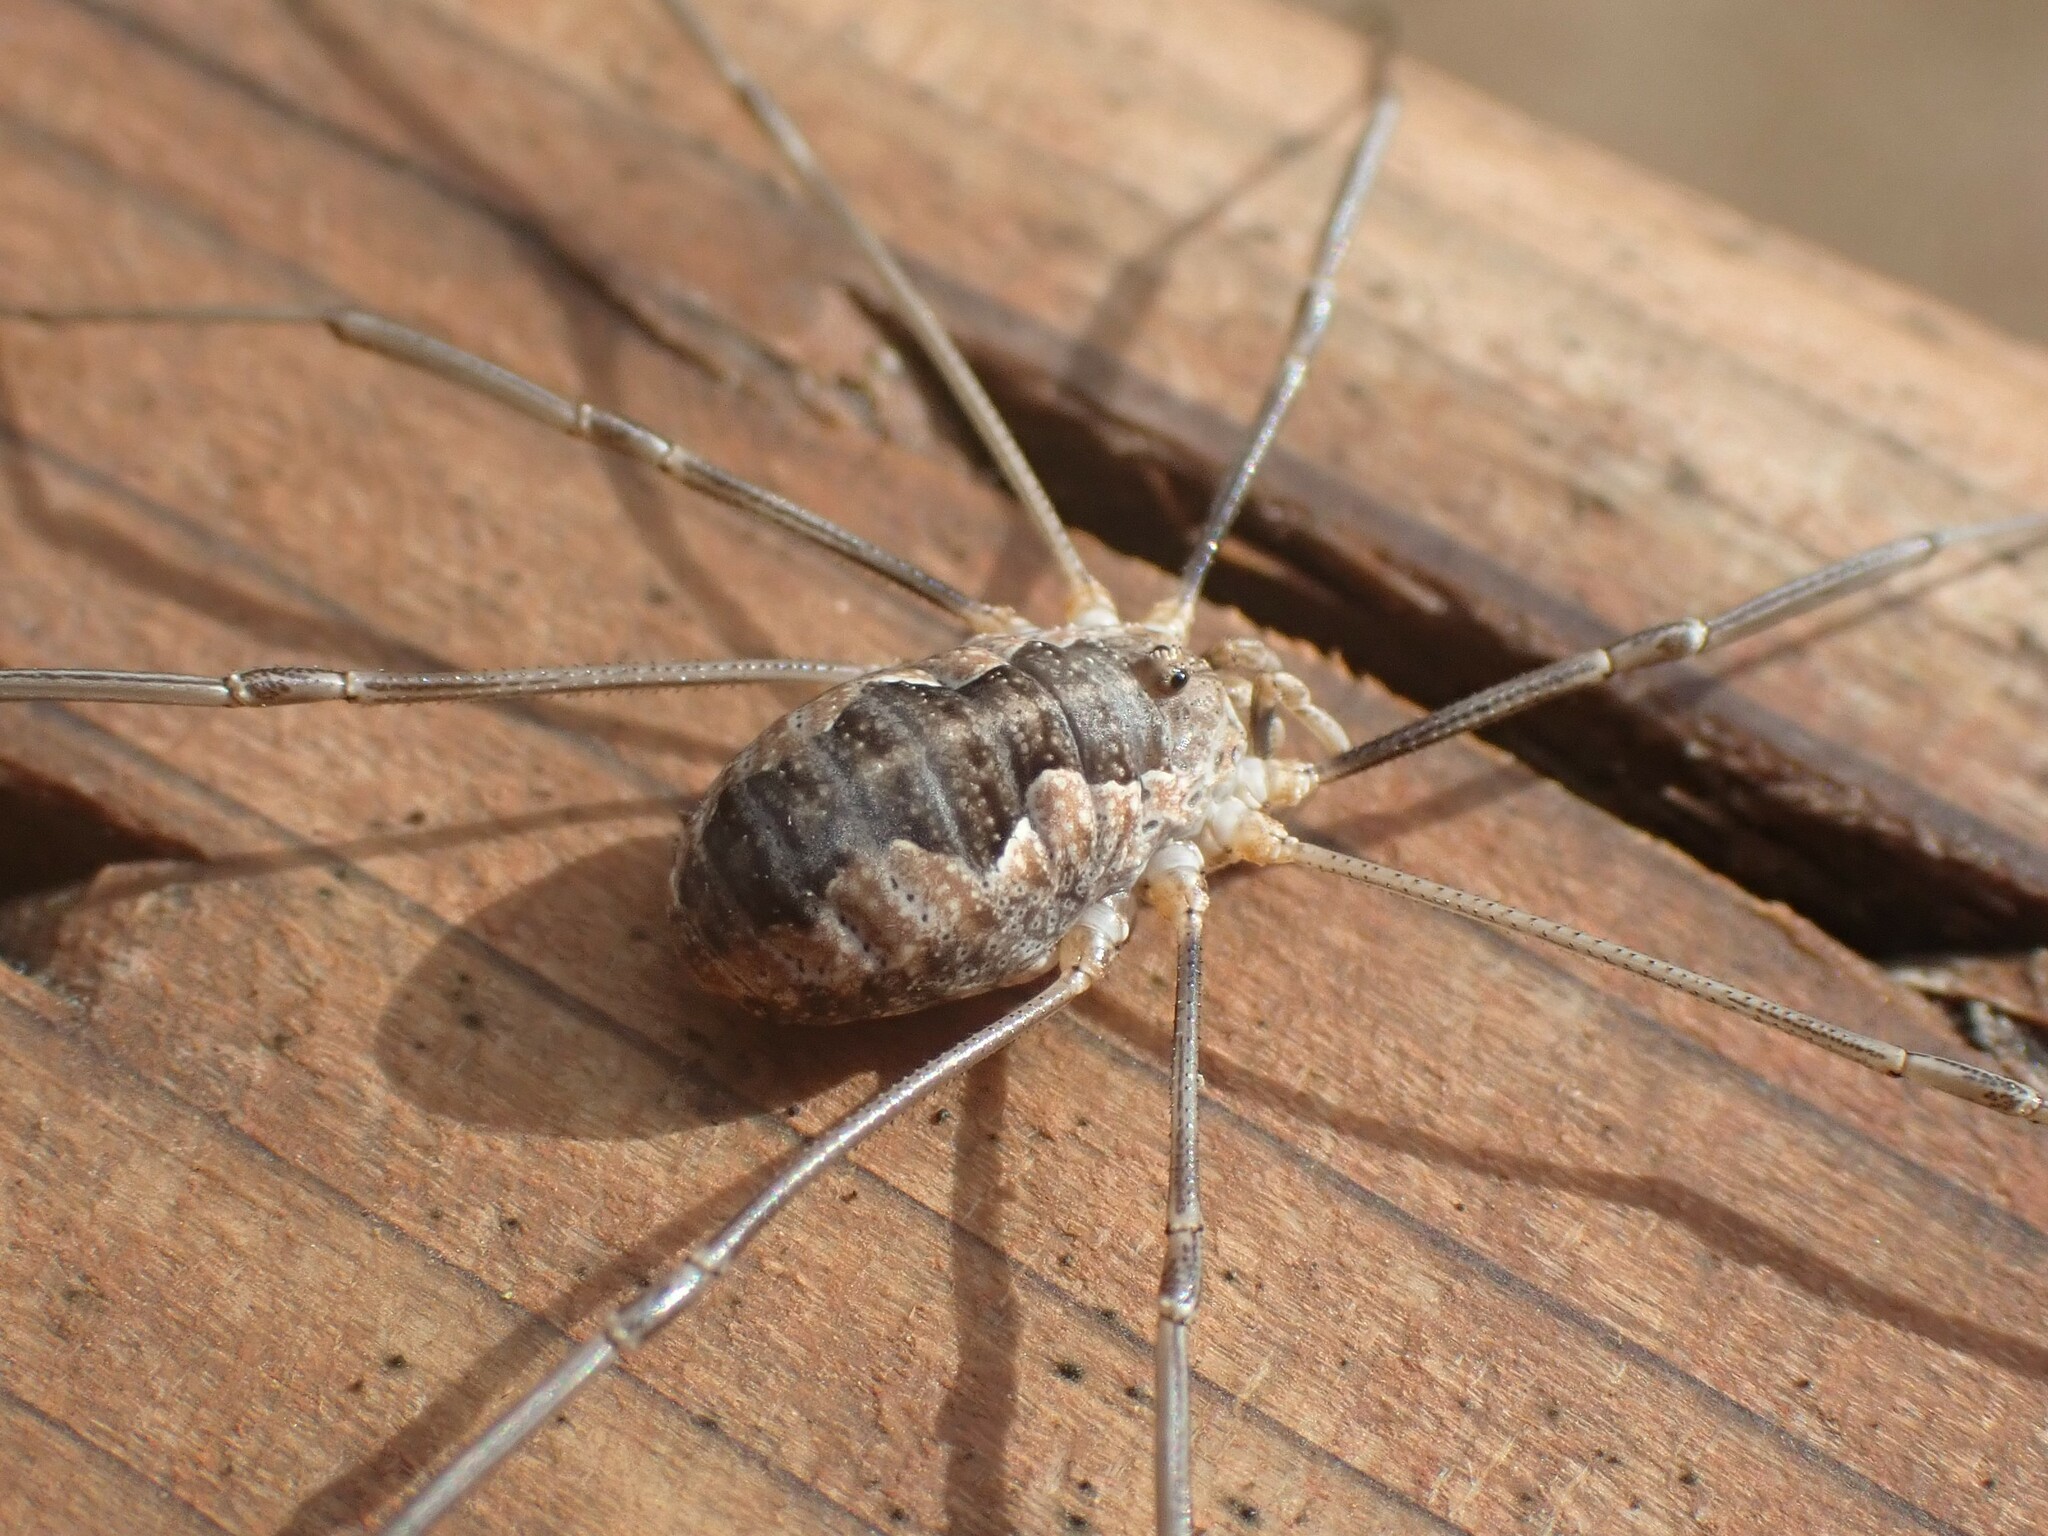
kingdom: Animalia
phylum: Arthropoda
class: Arachnida
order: Opiliones
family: Phalangiidae
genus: Phalangium
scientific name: Phalangium opilio
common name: Daddy longleg
